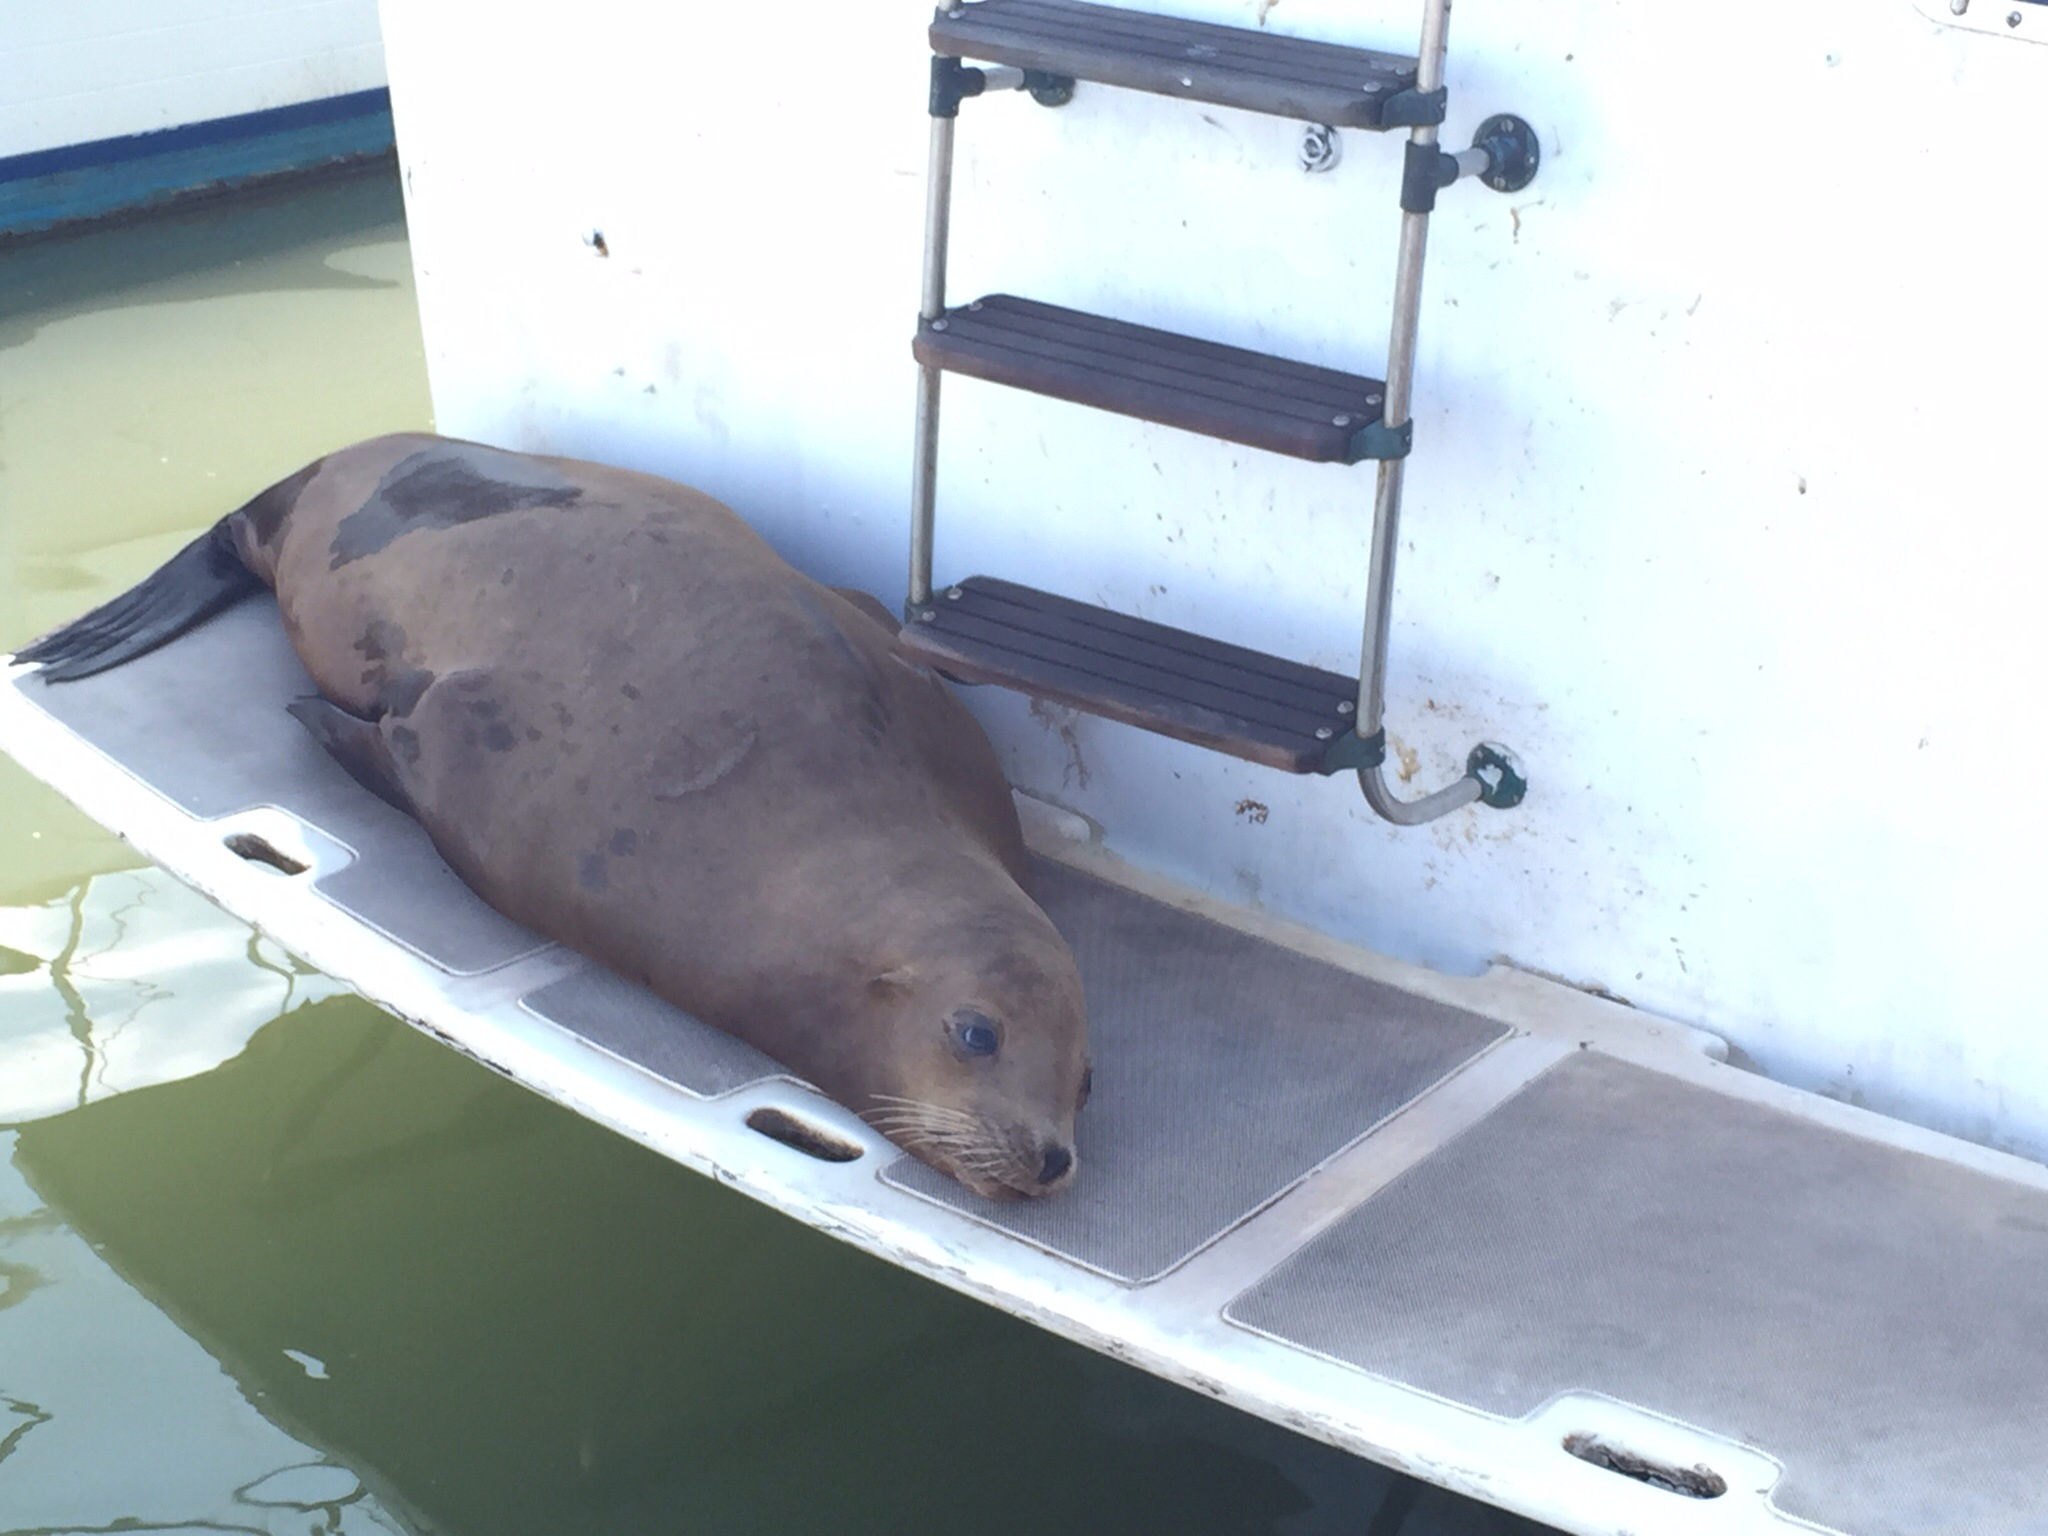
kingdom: Animalia
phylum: Chordata
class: Mammalia
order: Carnivora
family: Otariidae
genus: Zalophus
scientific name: Zalophus californianus
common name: California sea lion
